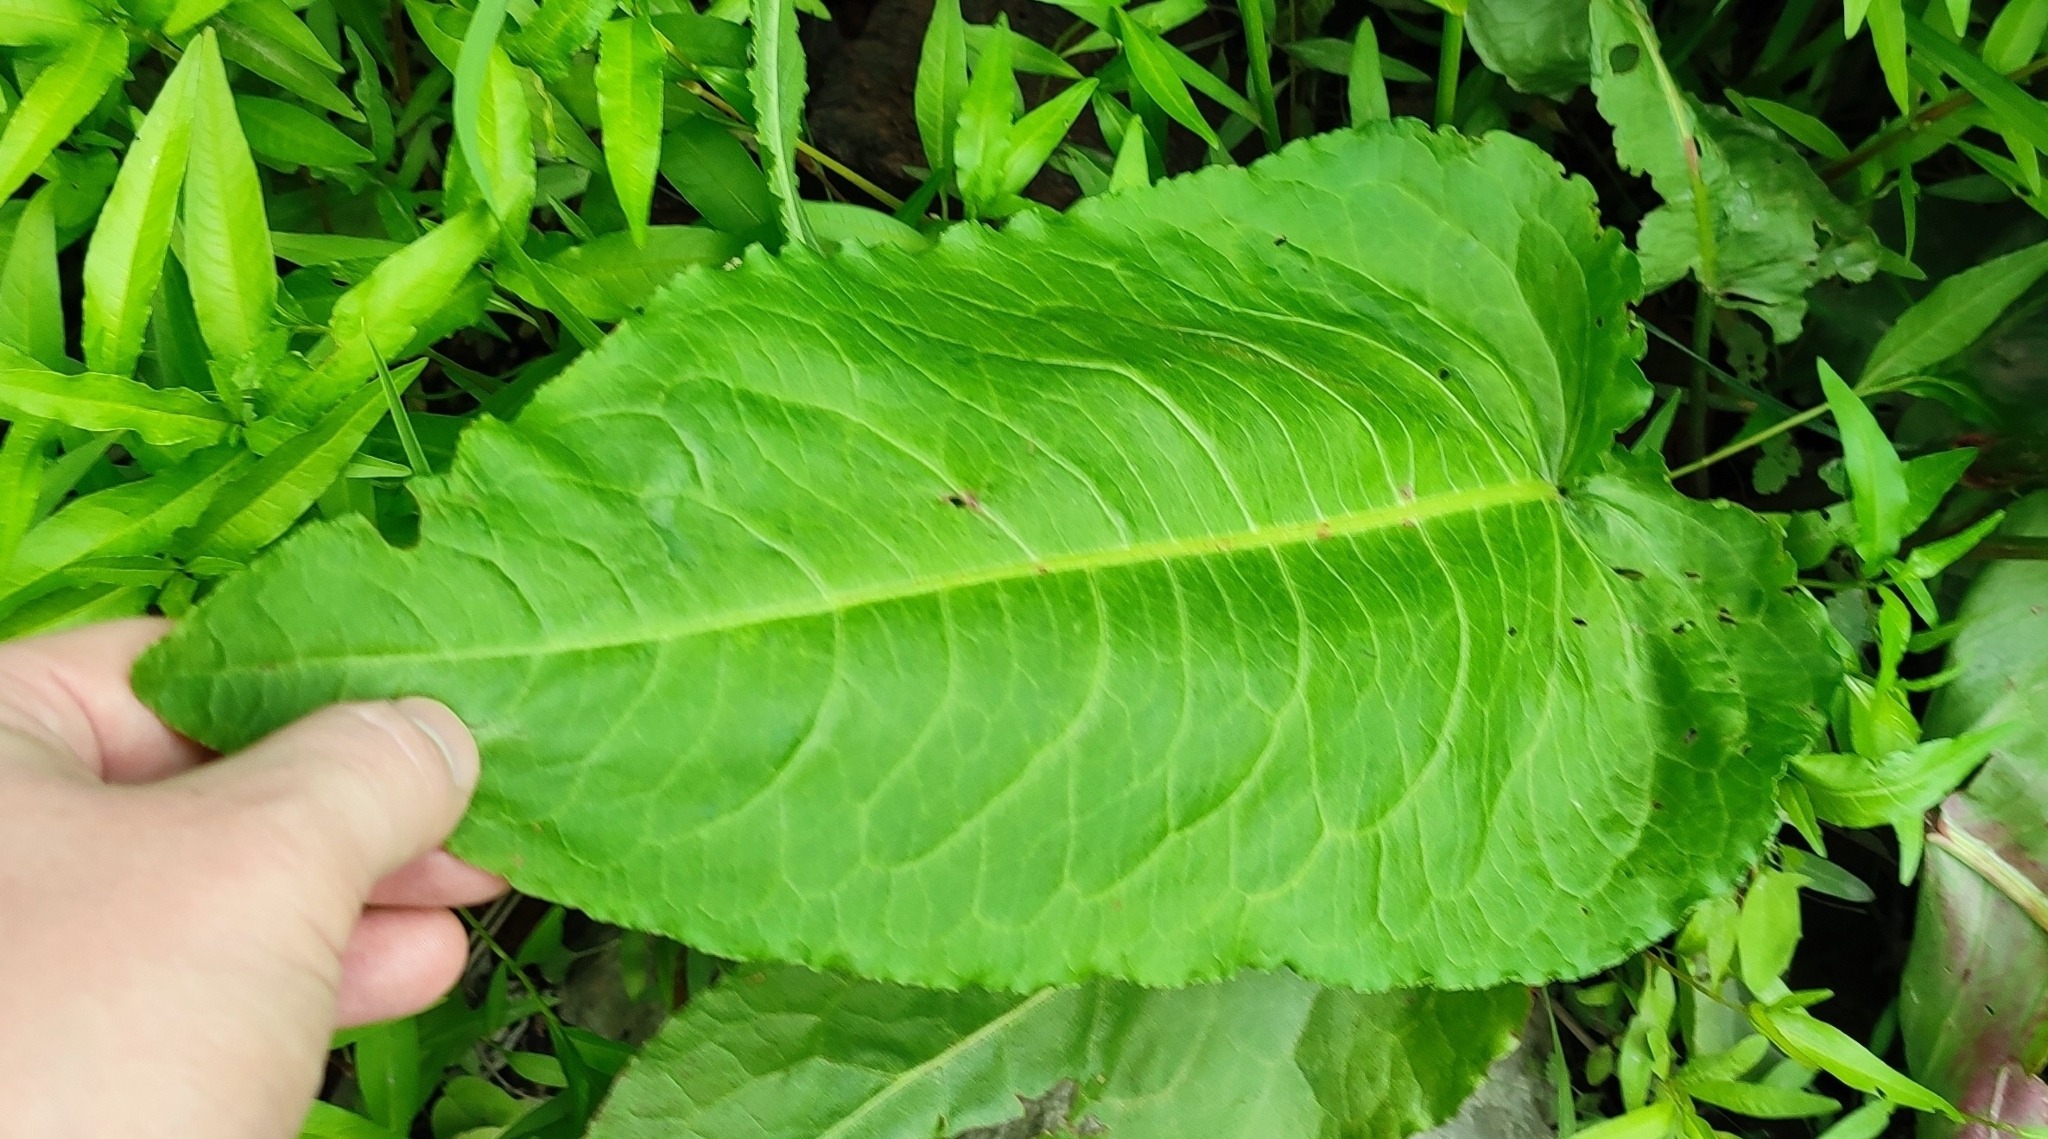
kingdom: Plantae
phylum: Tracheophyta
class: Magnoliopsida
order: Caryophyllales
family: Polygonaceae
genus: Rumex
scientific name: Rumex aquaticus
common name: Scottish dock
